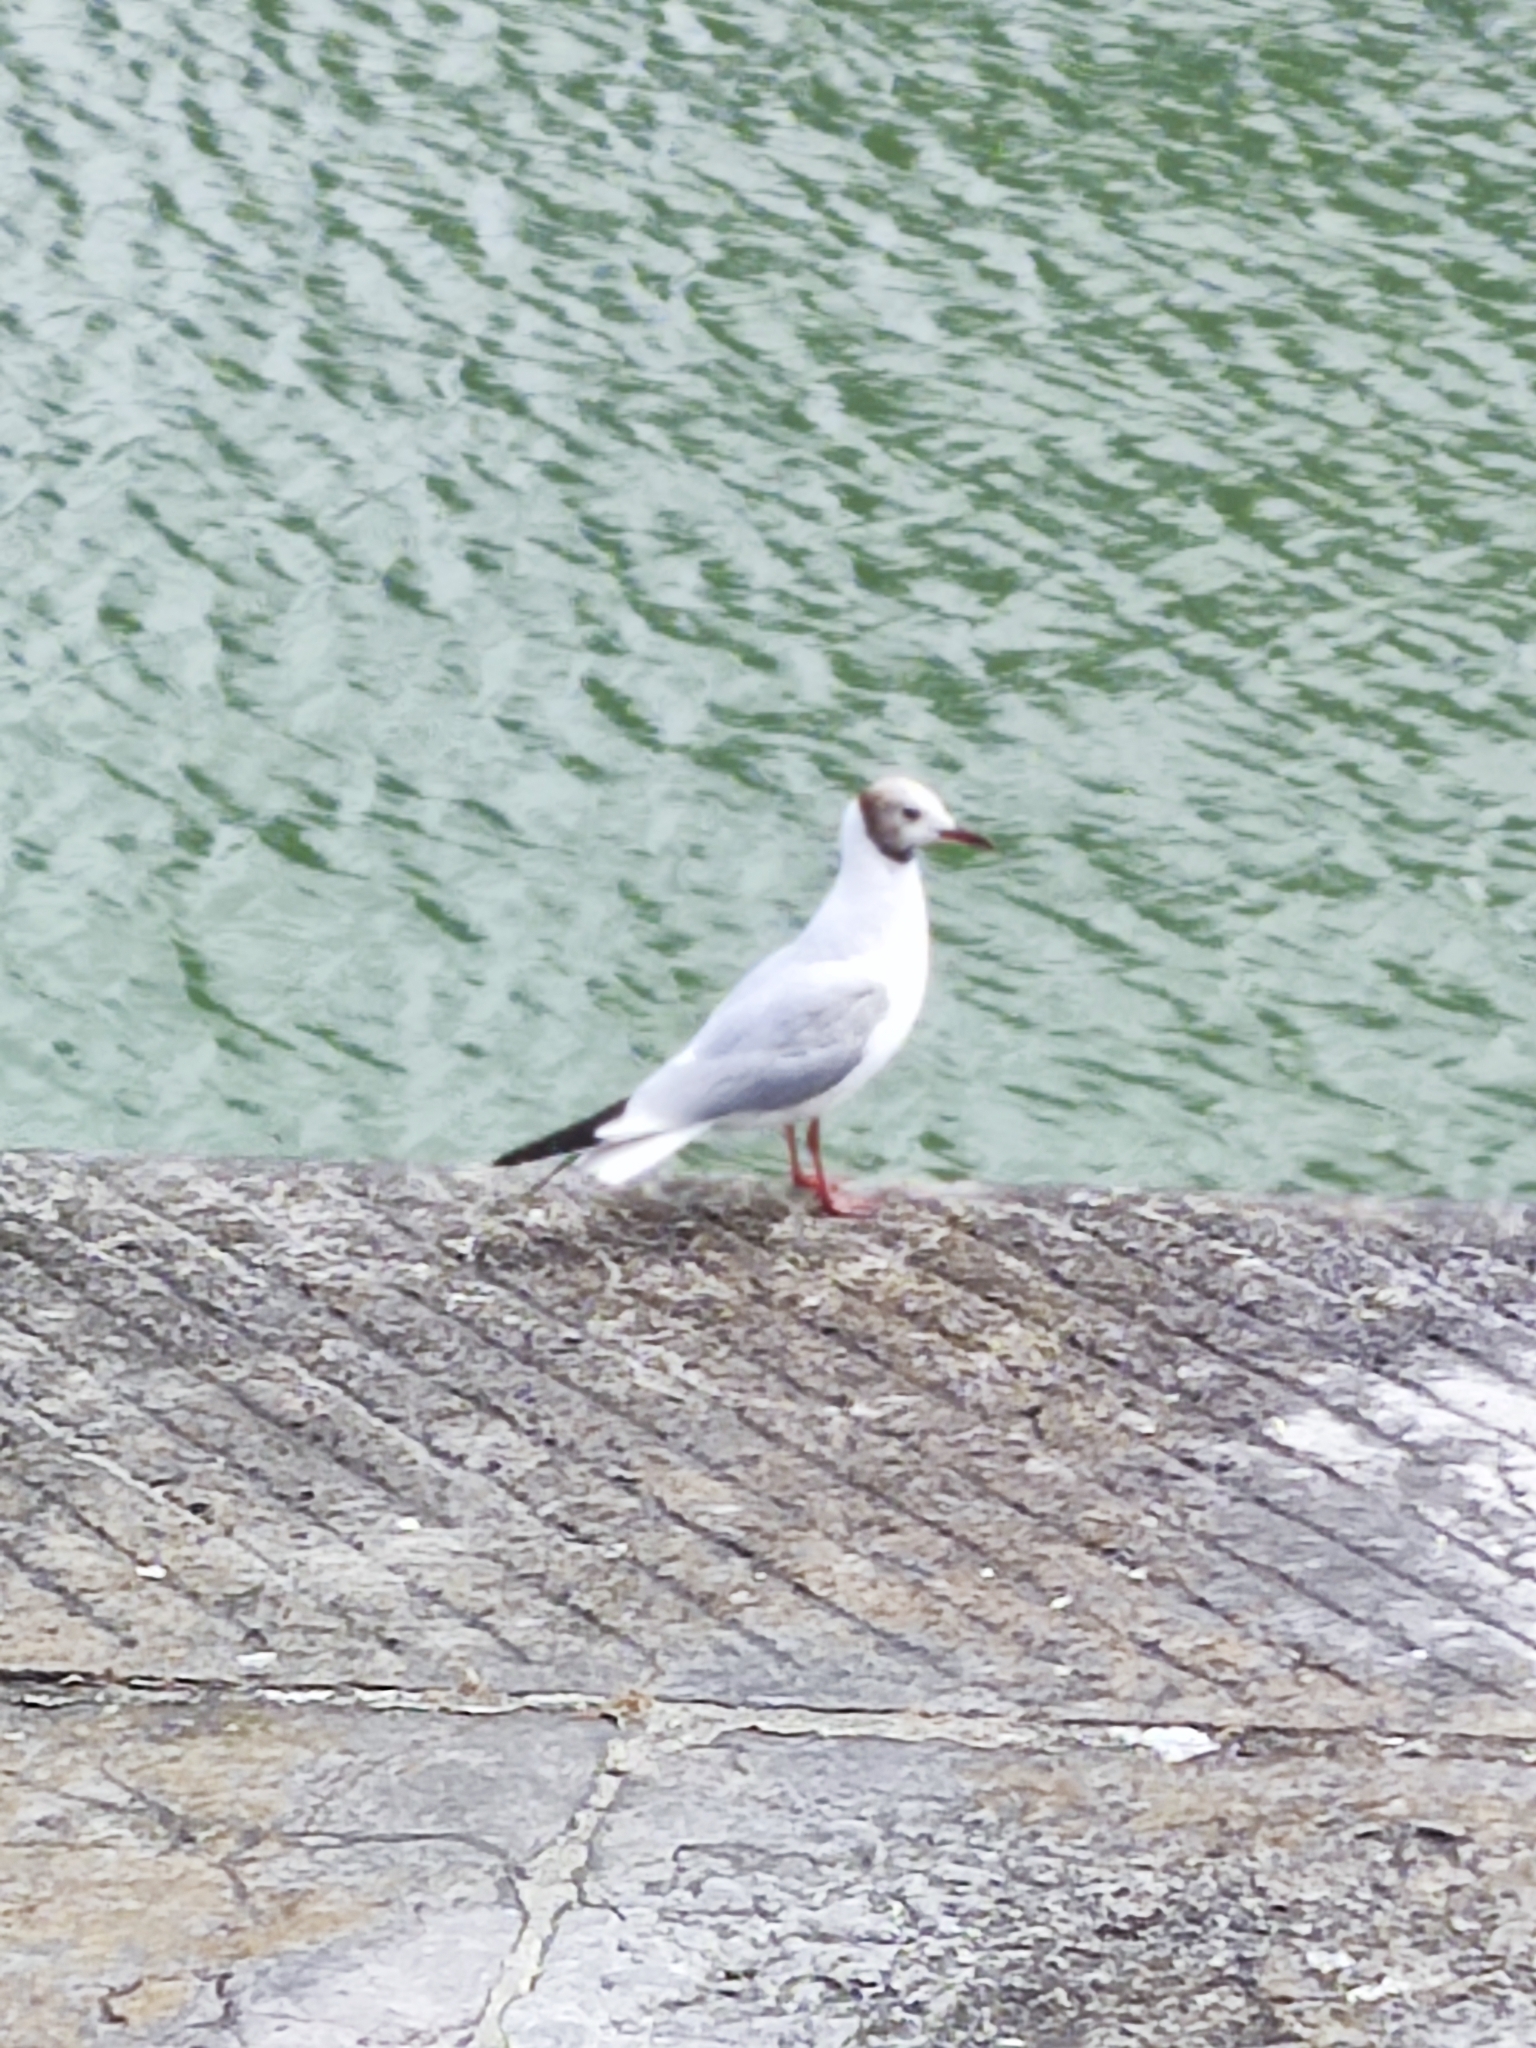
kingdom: Animalia
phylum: Chordata
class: Aves
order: Charadriiformes
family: Laridae
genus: Chroicocephalus
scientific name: Chroicocephalus ridibundus
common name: Black-headed gull
